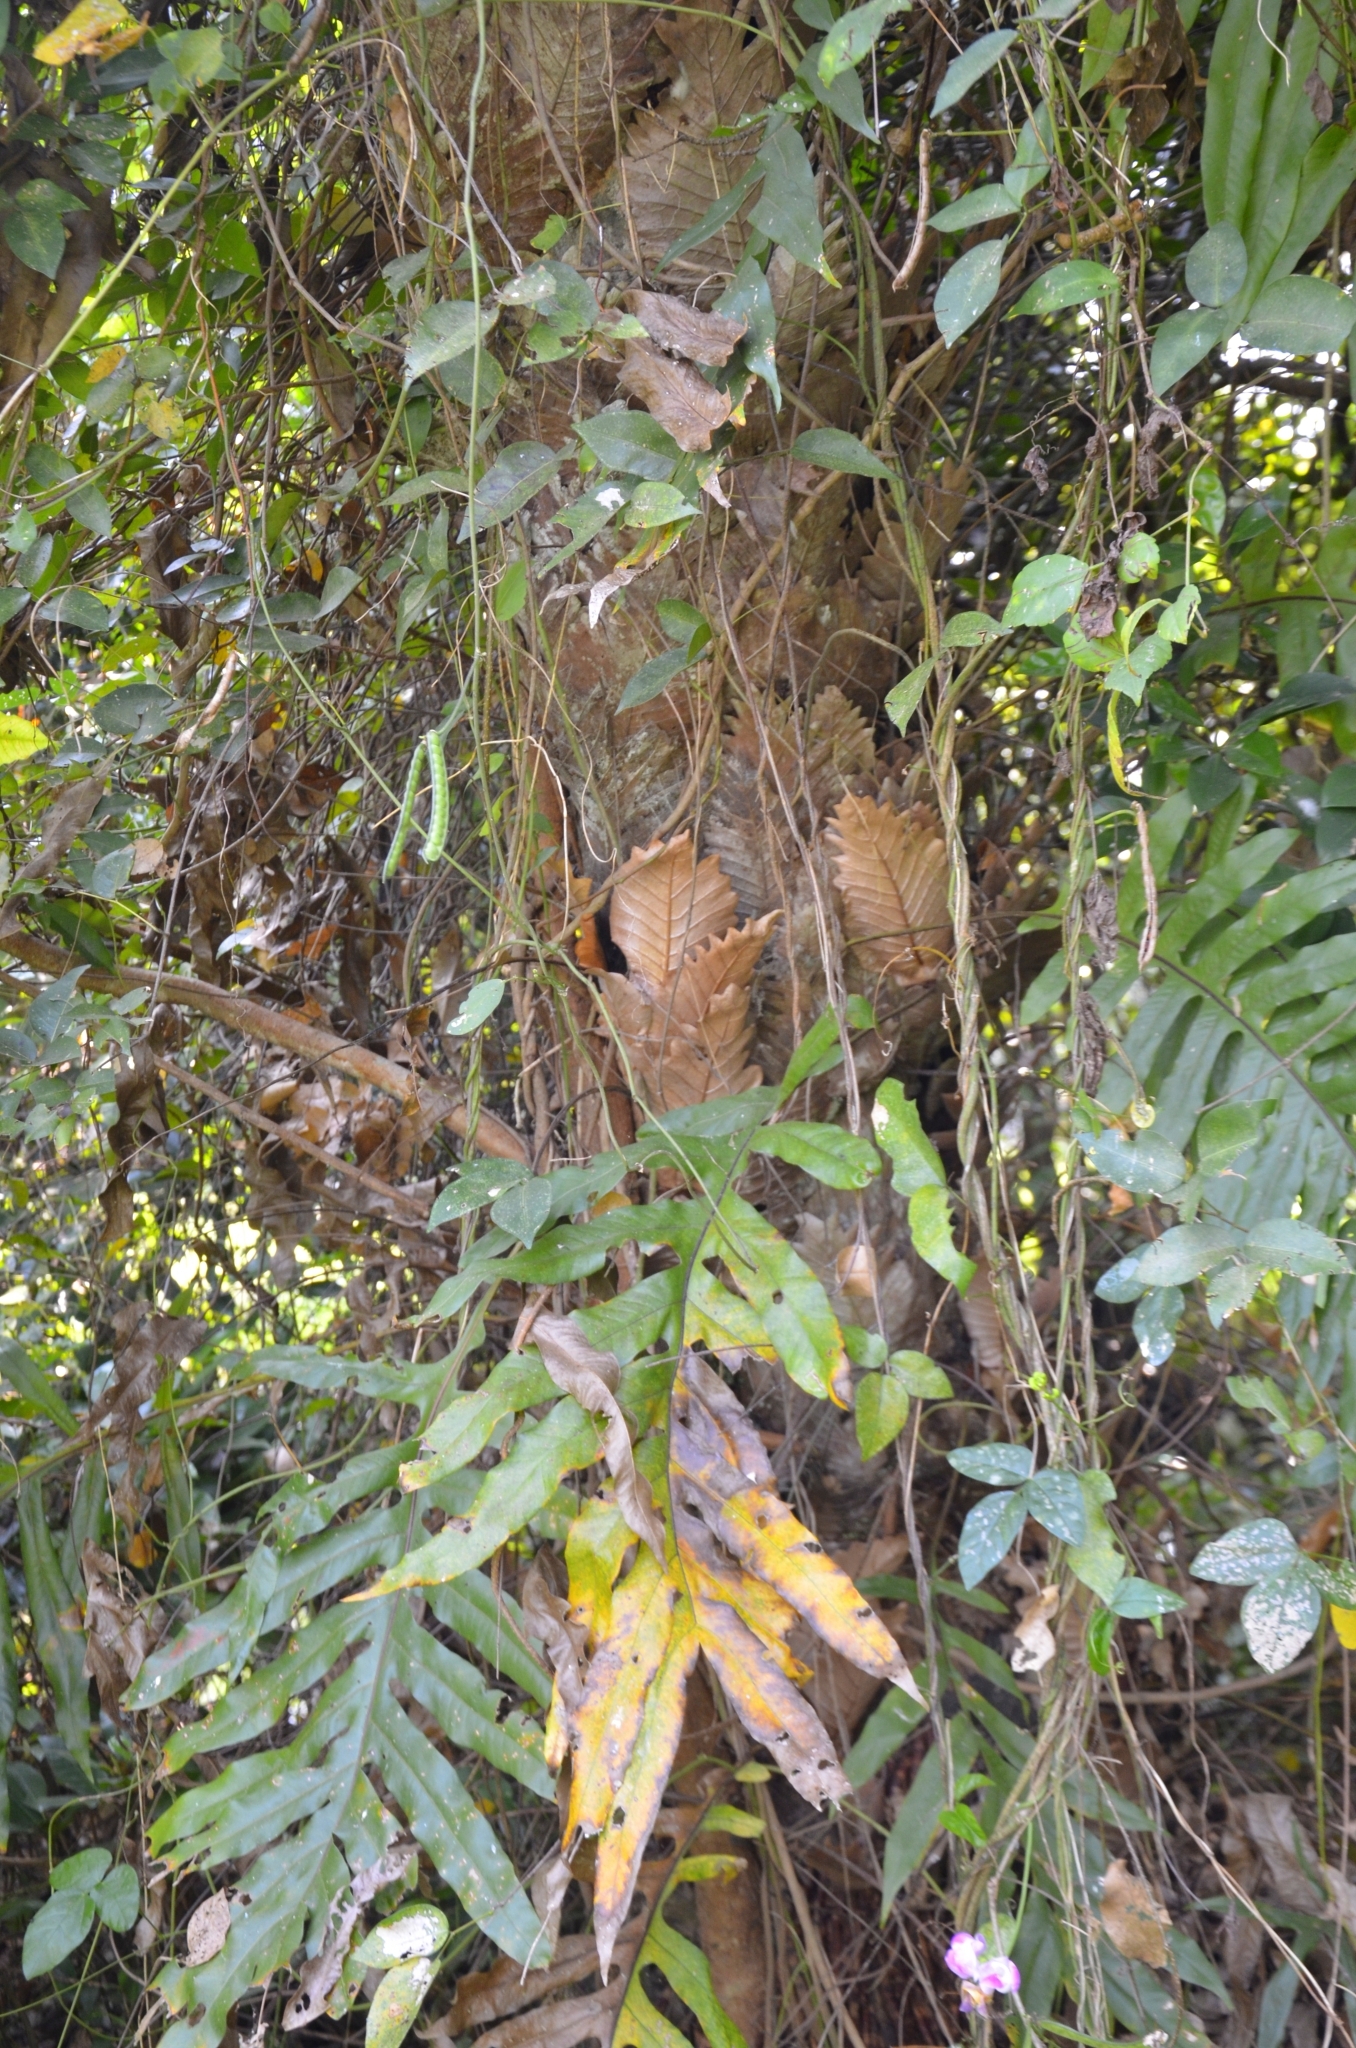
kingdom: Plantae
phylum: Tracheophyta
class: Polypodiopsida
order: Polypodiales
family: Polypodiaceae
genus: Drynaria
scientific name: Drynaria quercifolia
